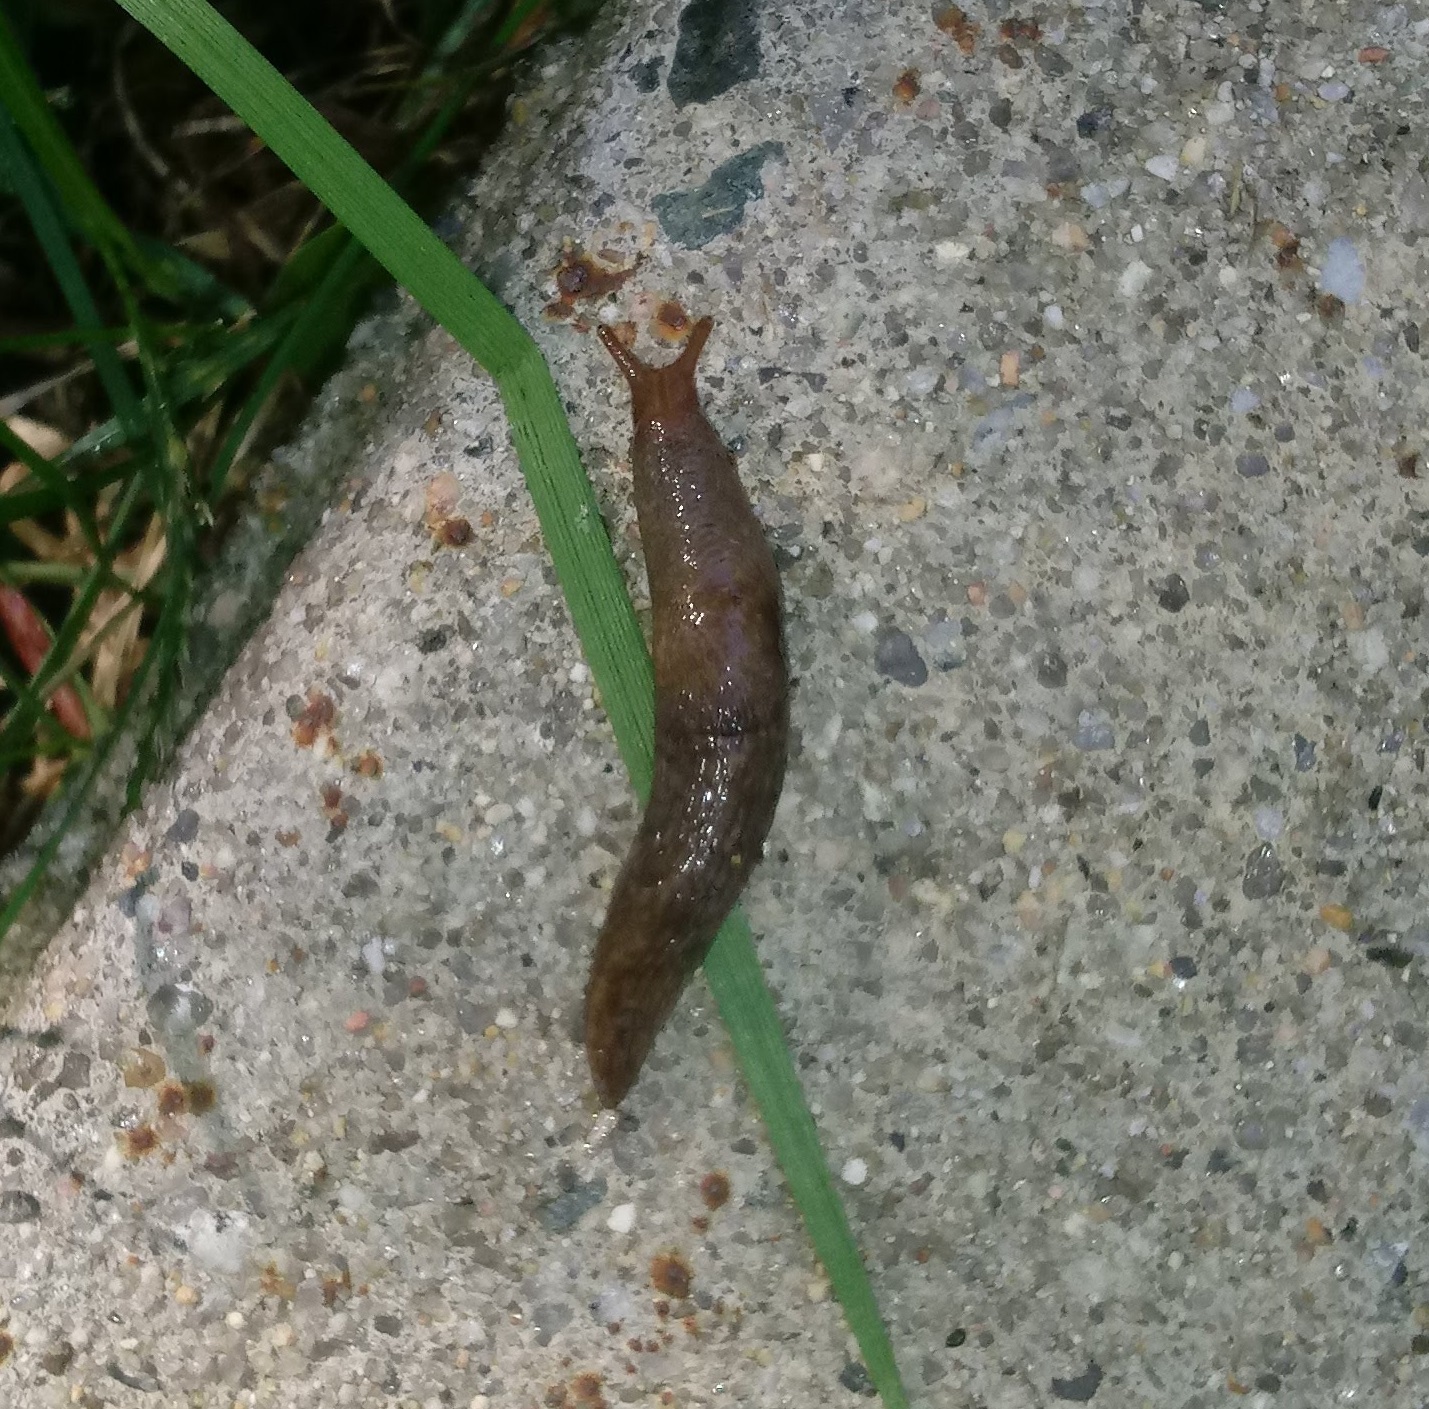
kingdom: Animalia
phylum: Mollusca
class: Gastropoda
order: Stylommatophora
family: Agriolimacidae
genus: Deroceras
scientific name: Deroceras reticulatum
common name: Gray field slug
